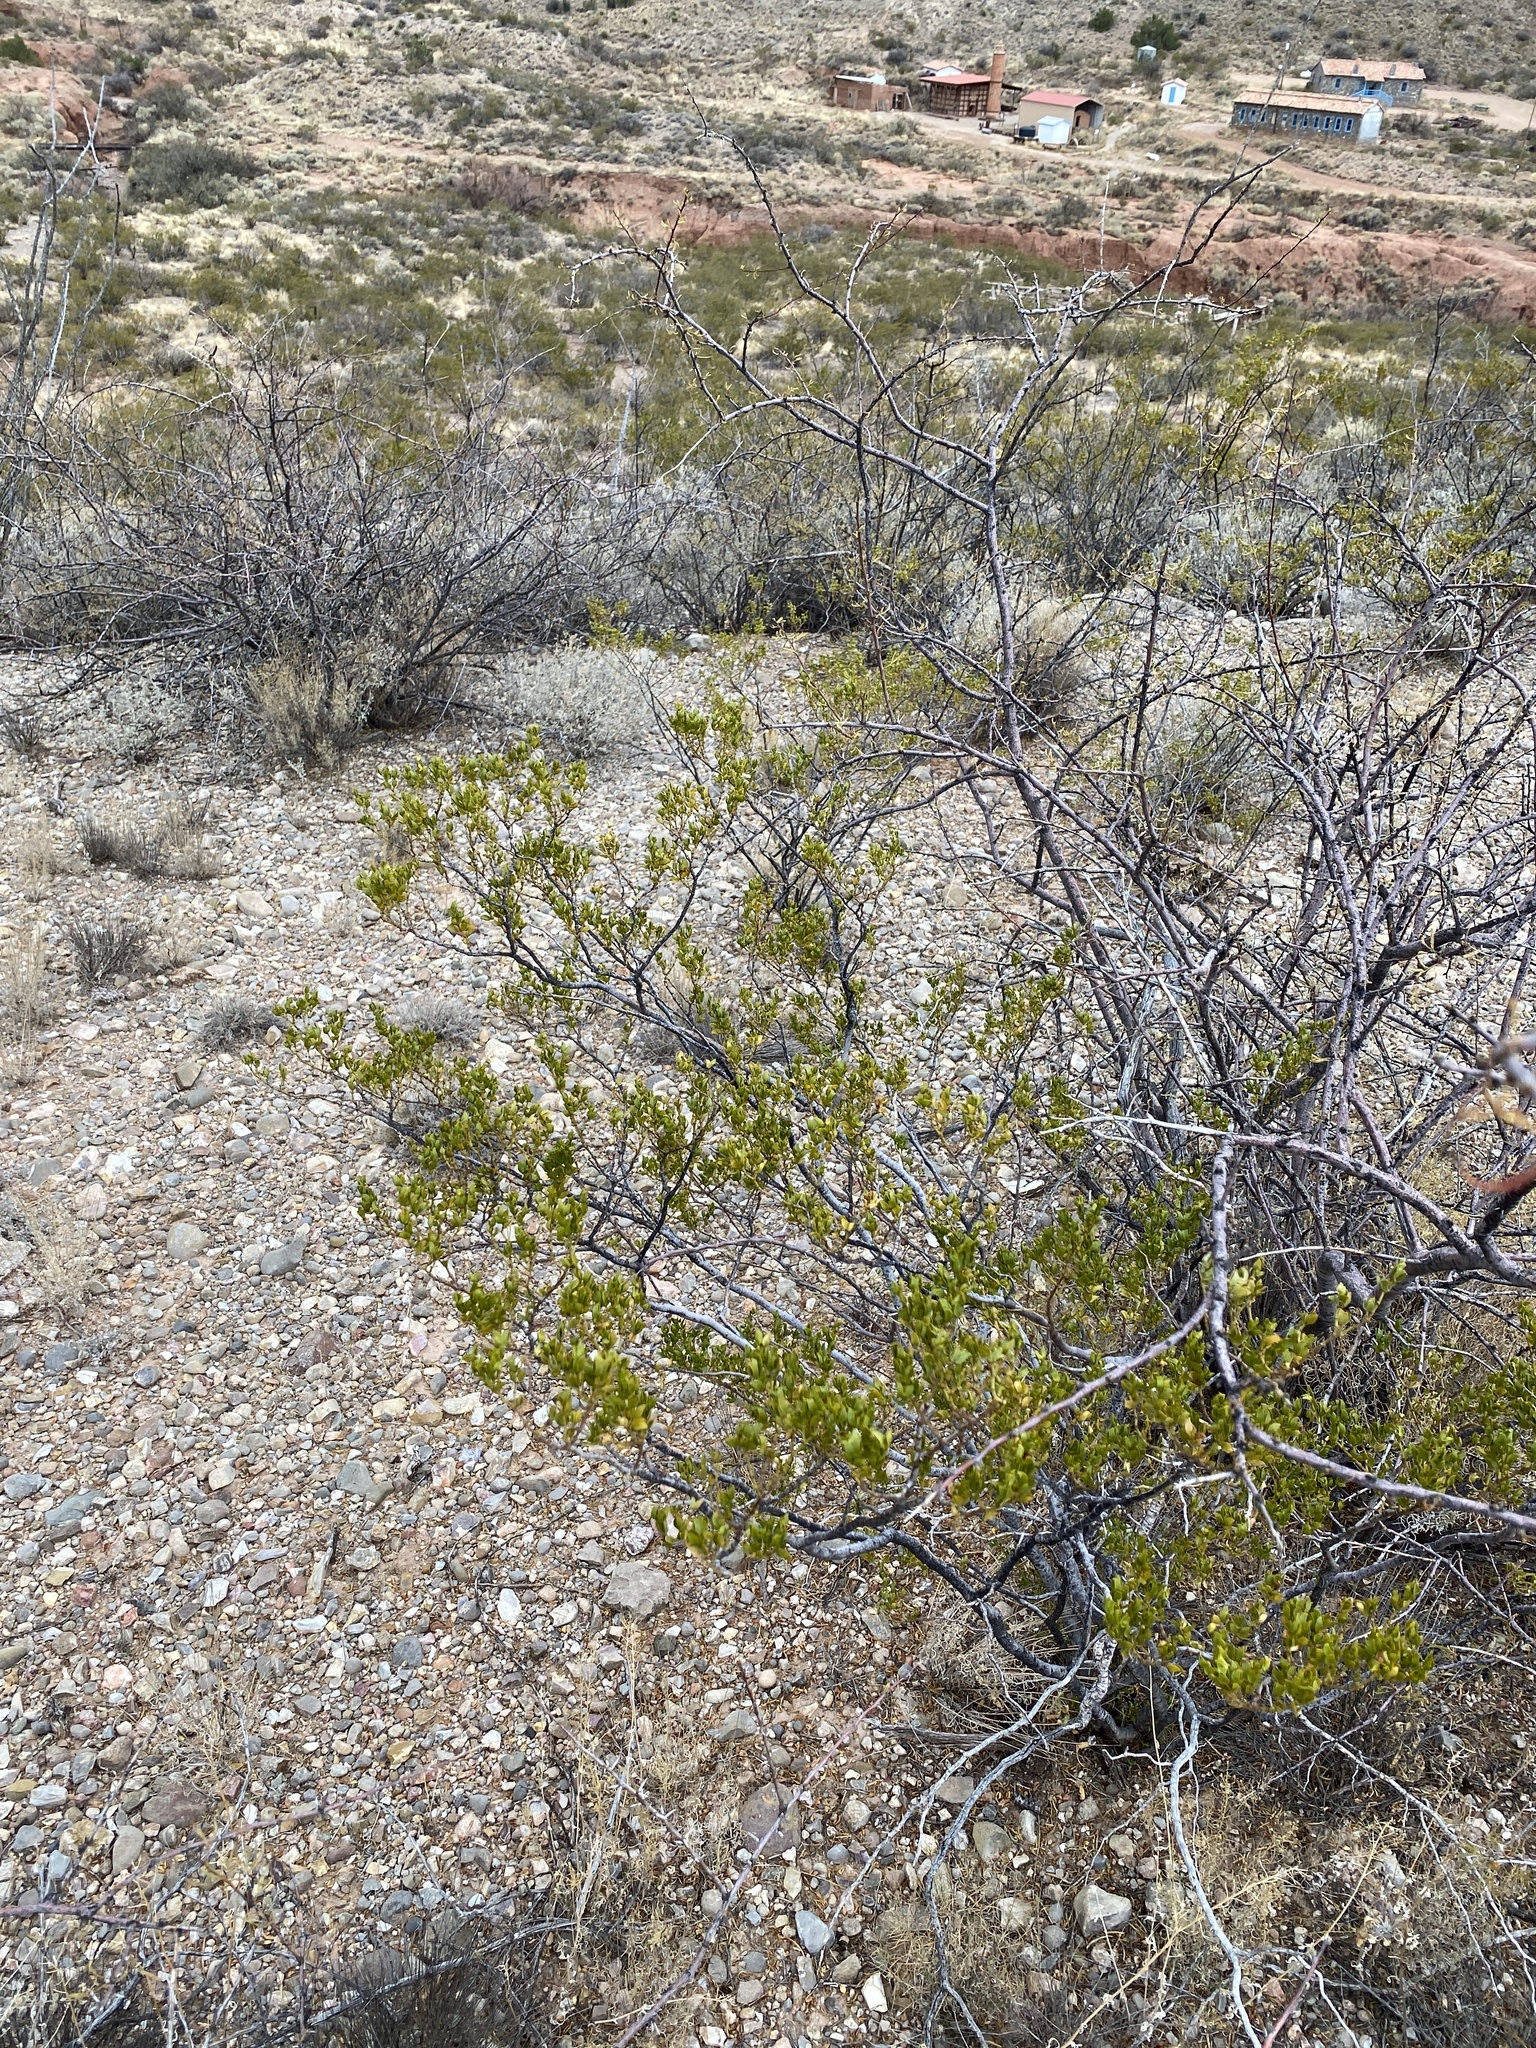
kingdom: Plantae
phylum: Tracheophyta
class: Magnoliopsida
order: Zygophyllales
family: Zygophyllaceae
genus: Larrea
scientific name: Larrea tridentata
